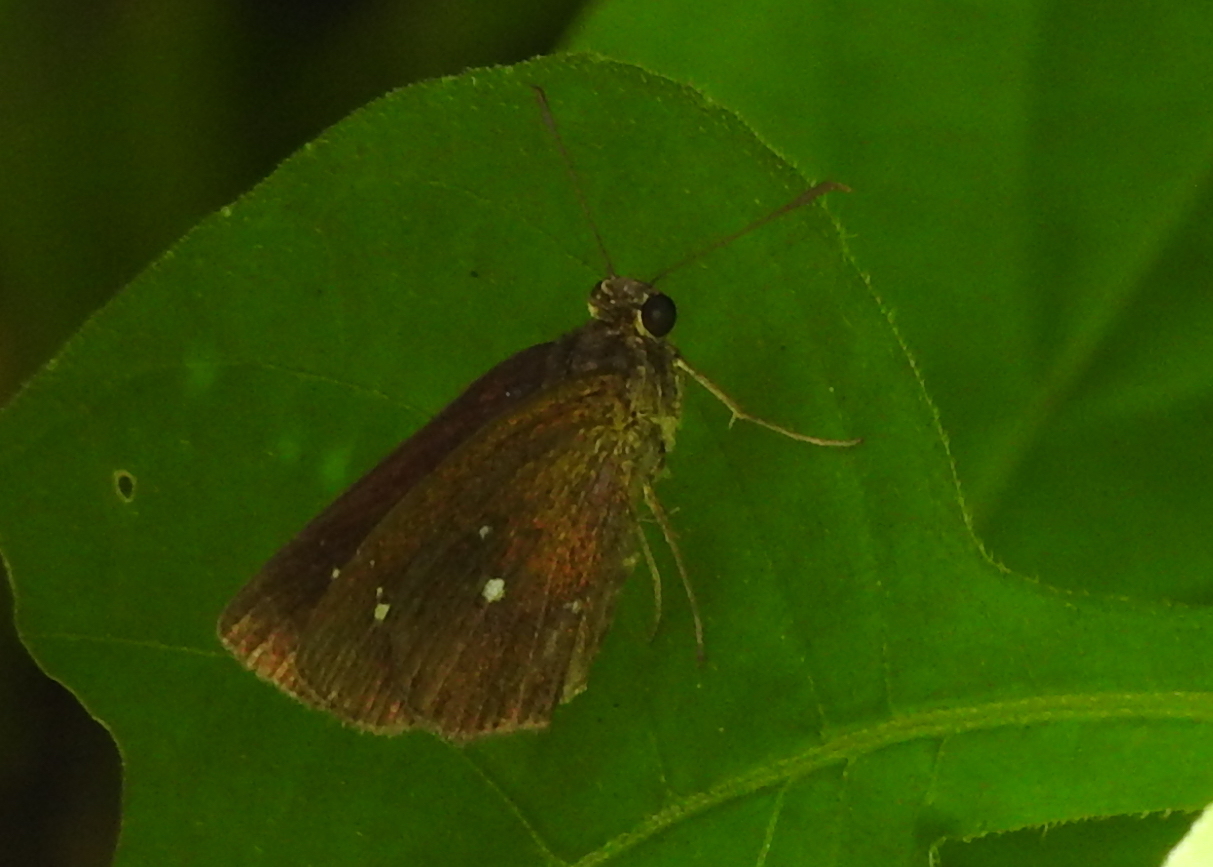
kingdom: Animalia
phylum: Arthropoda
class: Insecta
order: Lepidoptera
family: Hesperiidae
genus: Iambrix
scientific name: Iambrix salsala
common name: Chestnut bob
